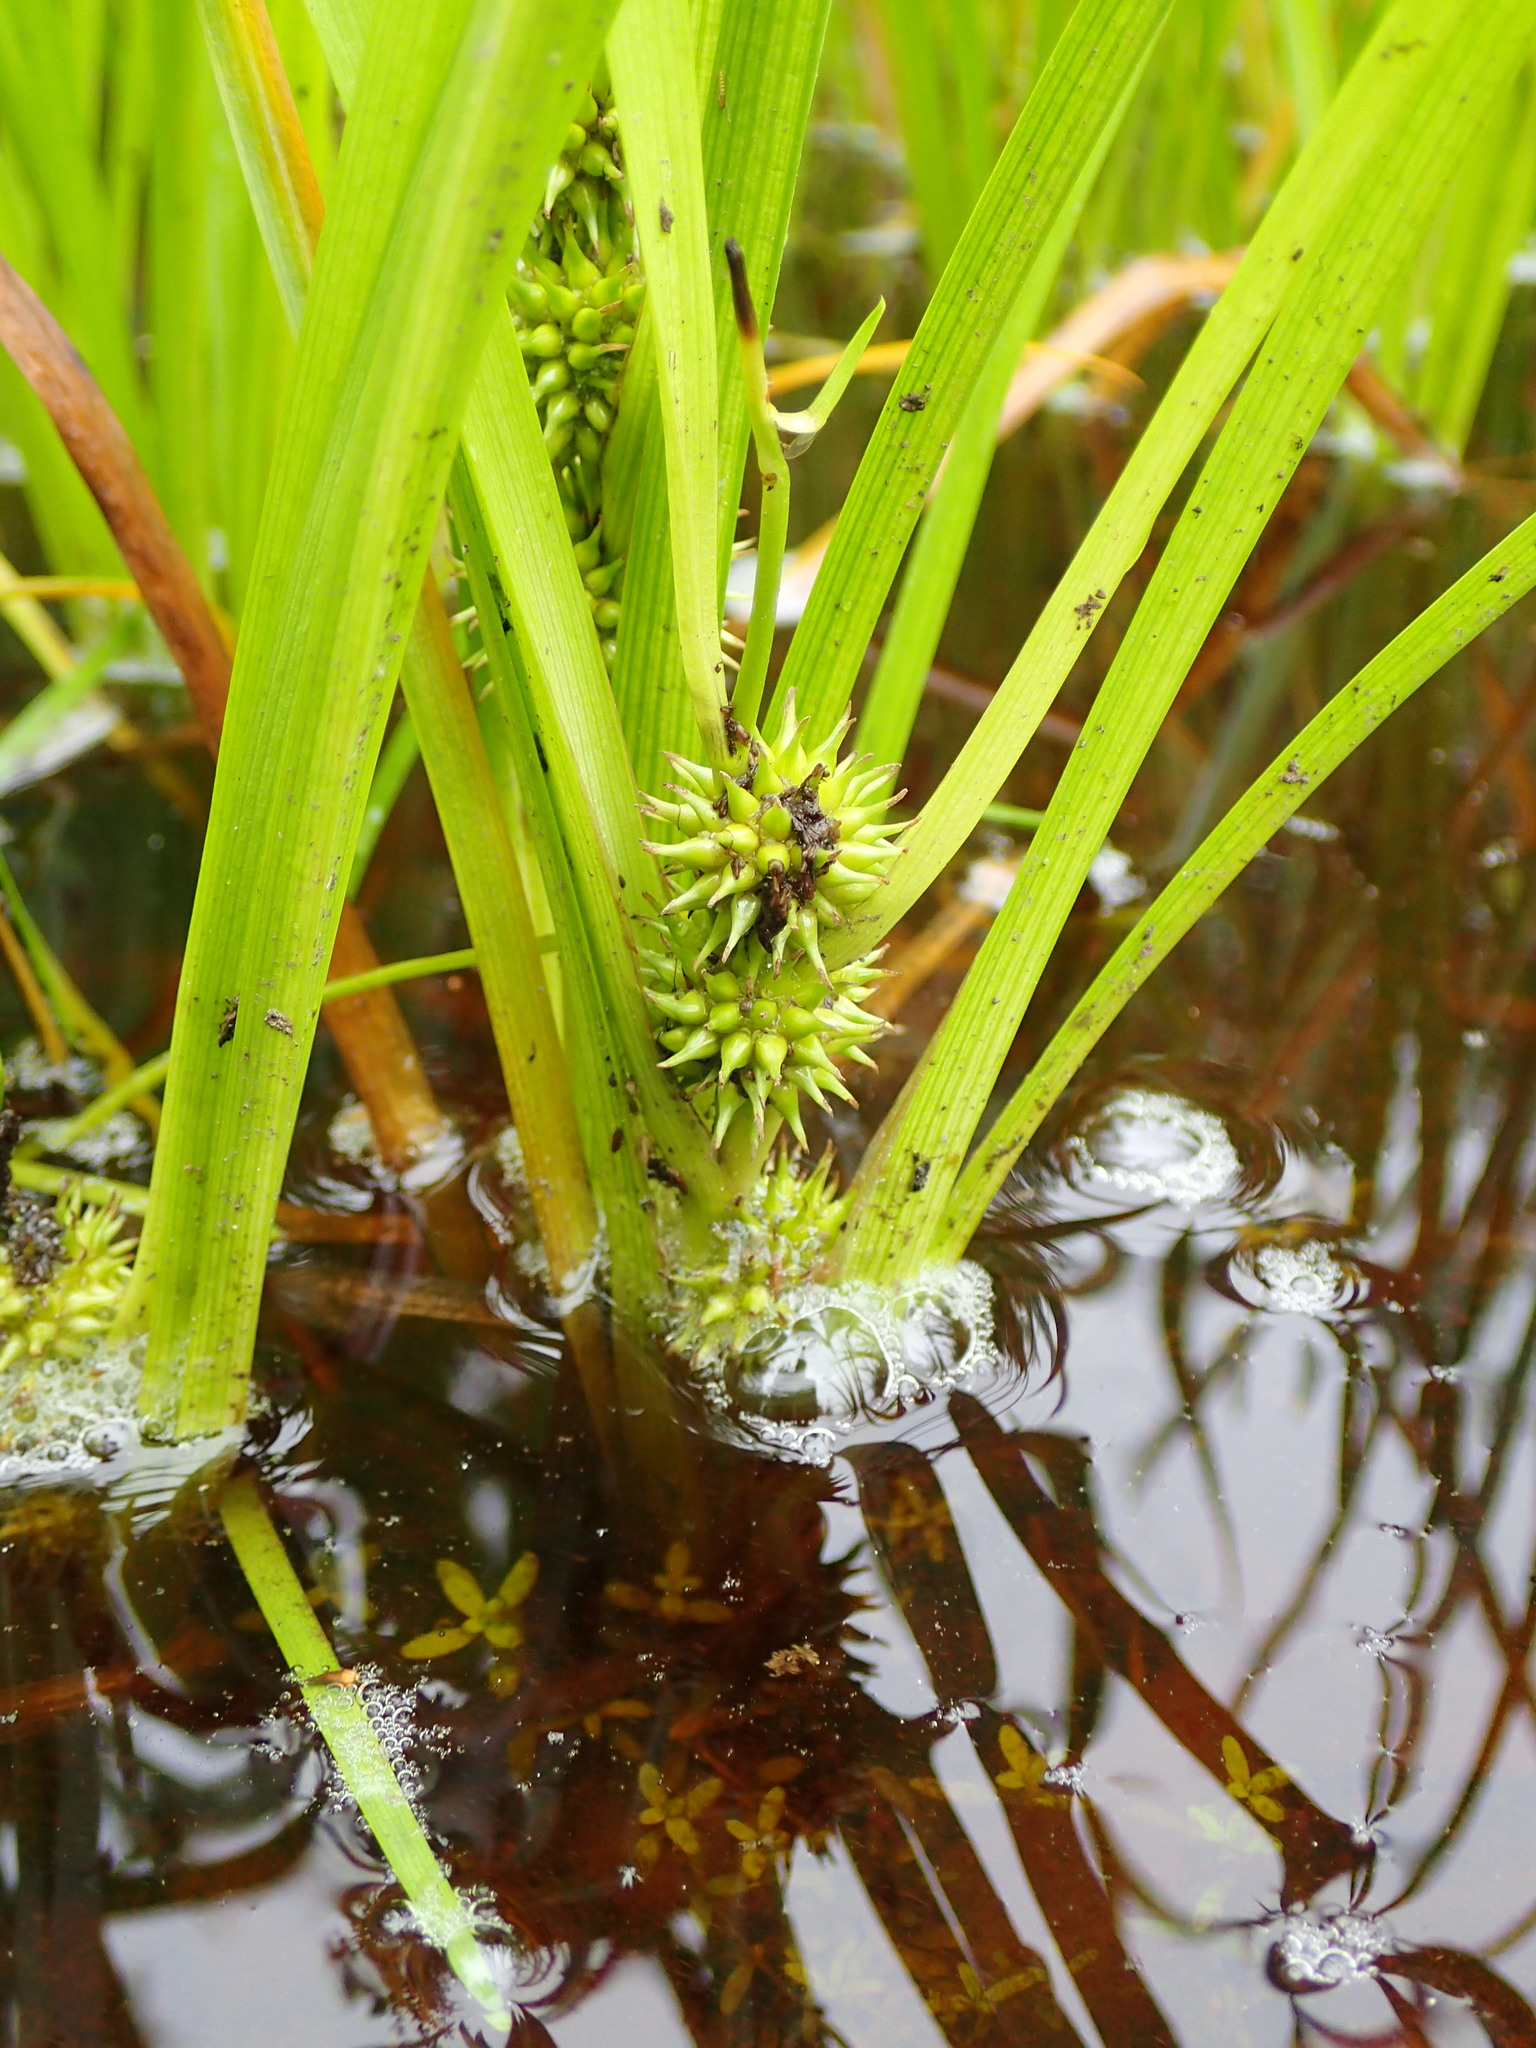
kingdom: Plantae
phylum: Tracheophyta
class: Liliopsida
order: Poales
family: Typhaceae
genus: Sparganium
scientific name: Sparganium emersum
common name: Unbranched bur-reed
